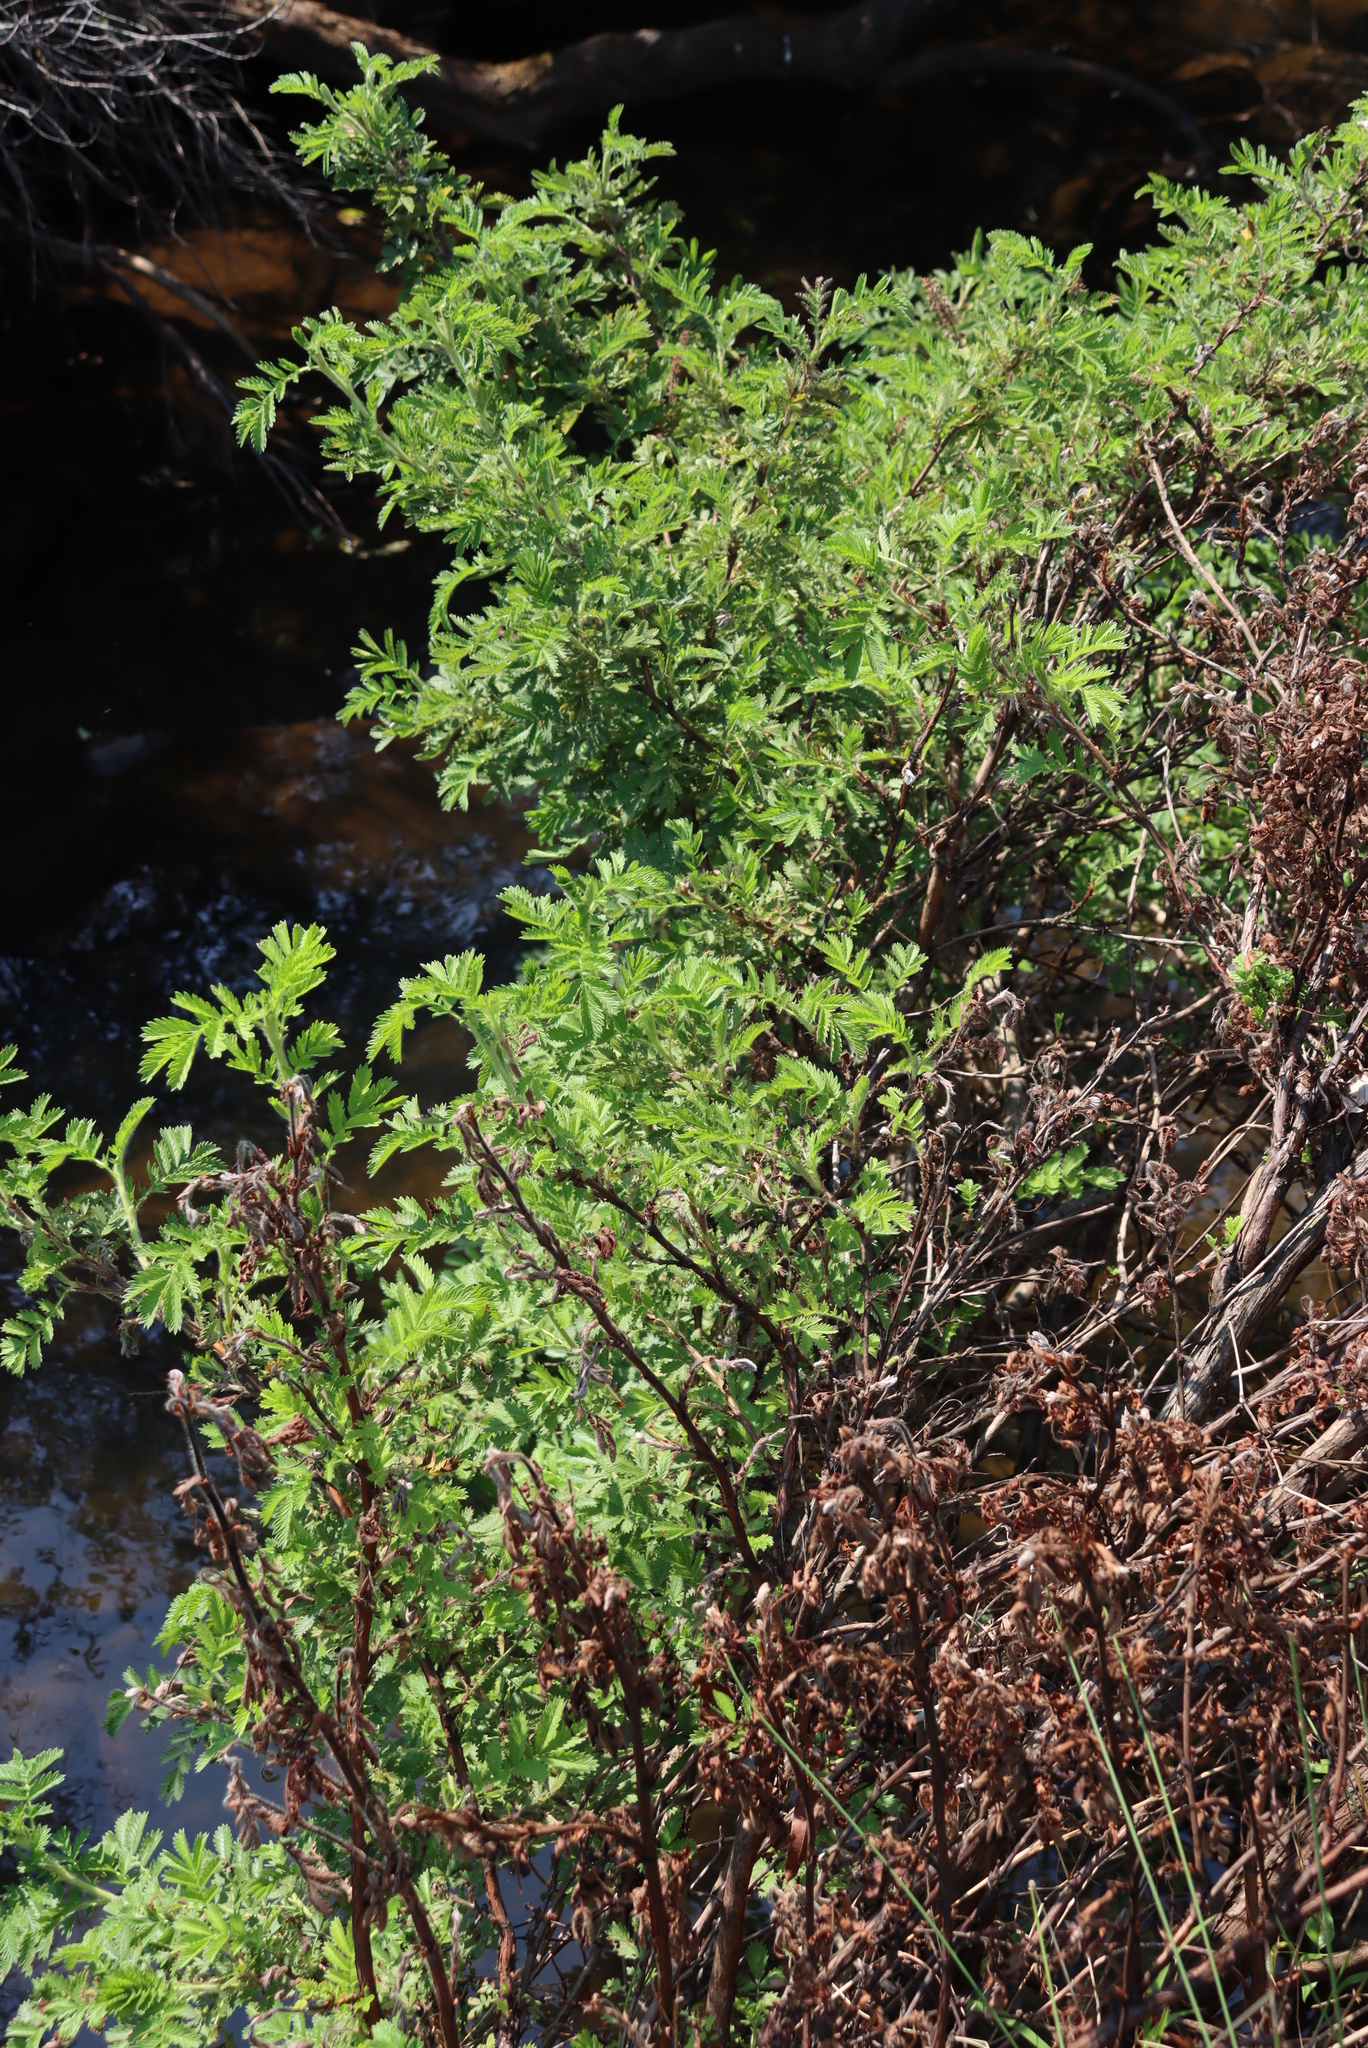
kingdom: Plantae
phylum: Tracheophyta
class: Magnoliopsida
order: Rosales
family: Rosaceae
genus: Leucosidea
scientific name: Leucosidea sericea
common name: Oldwood
